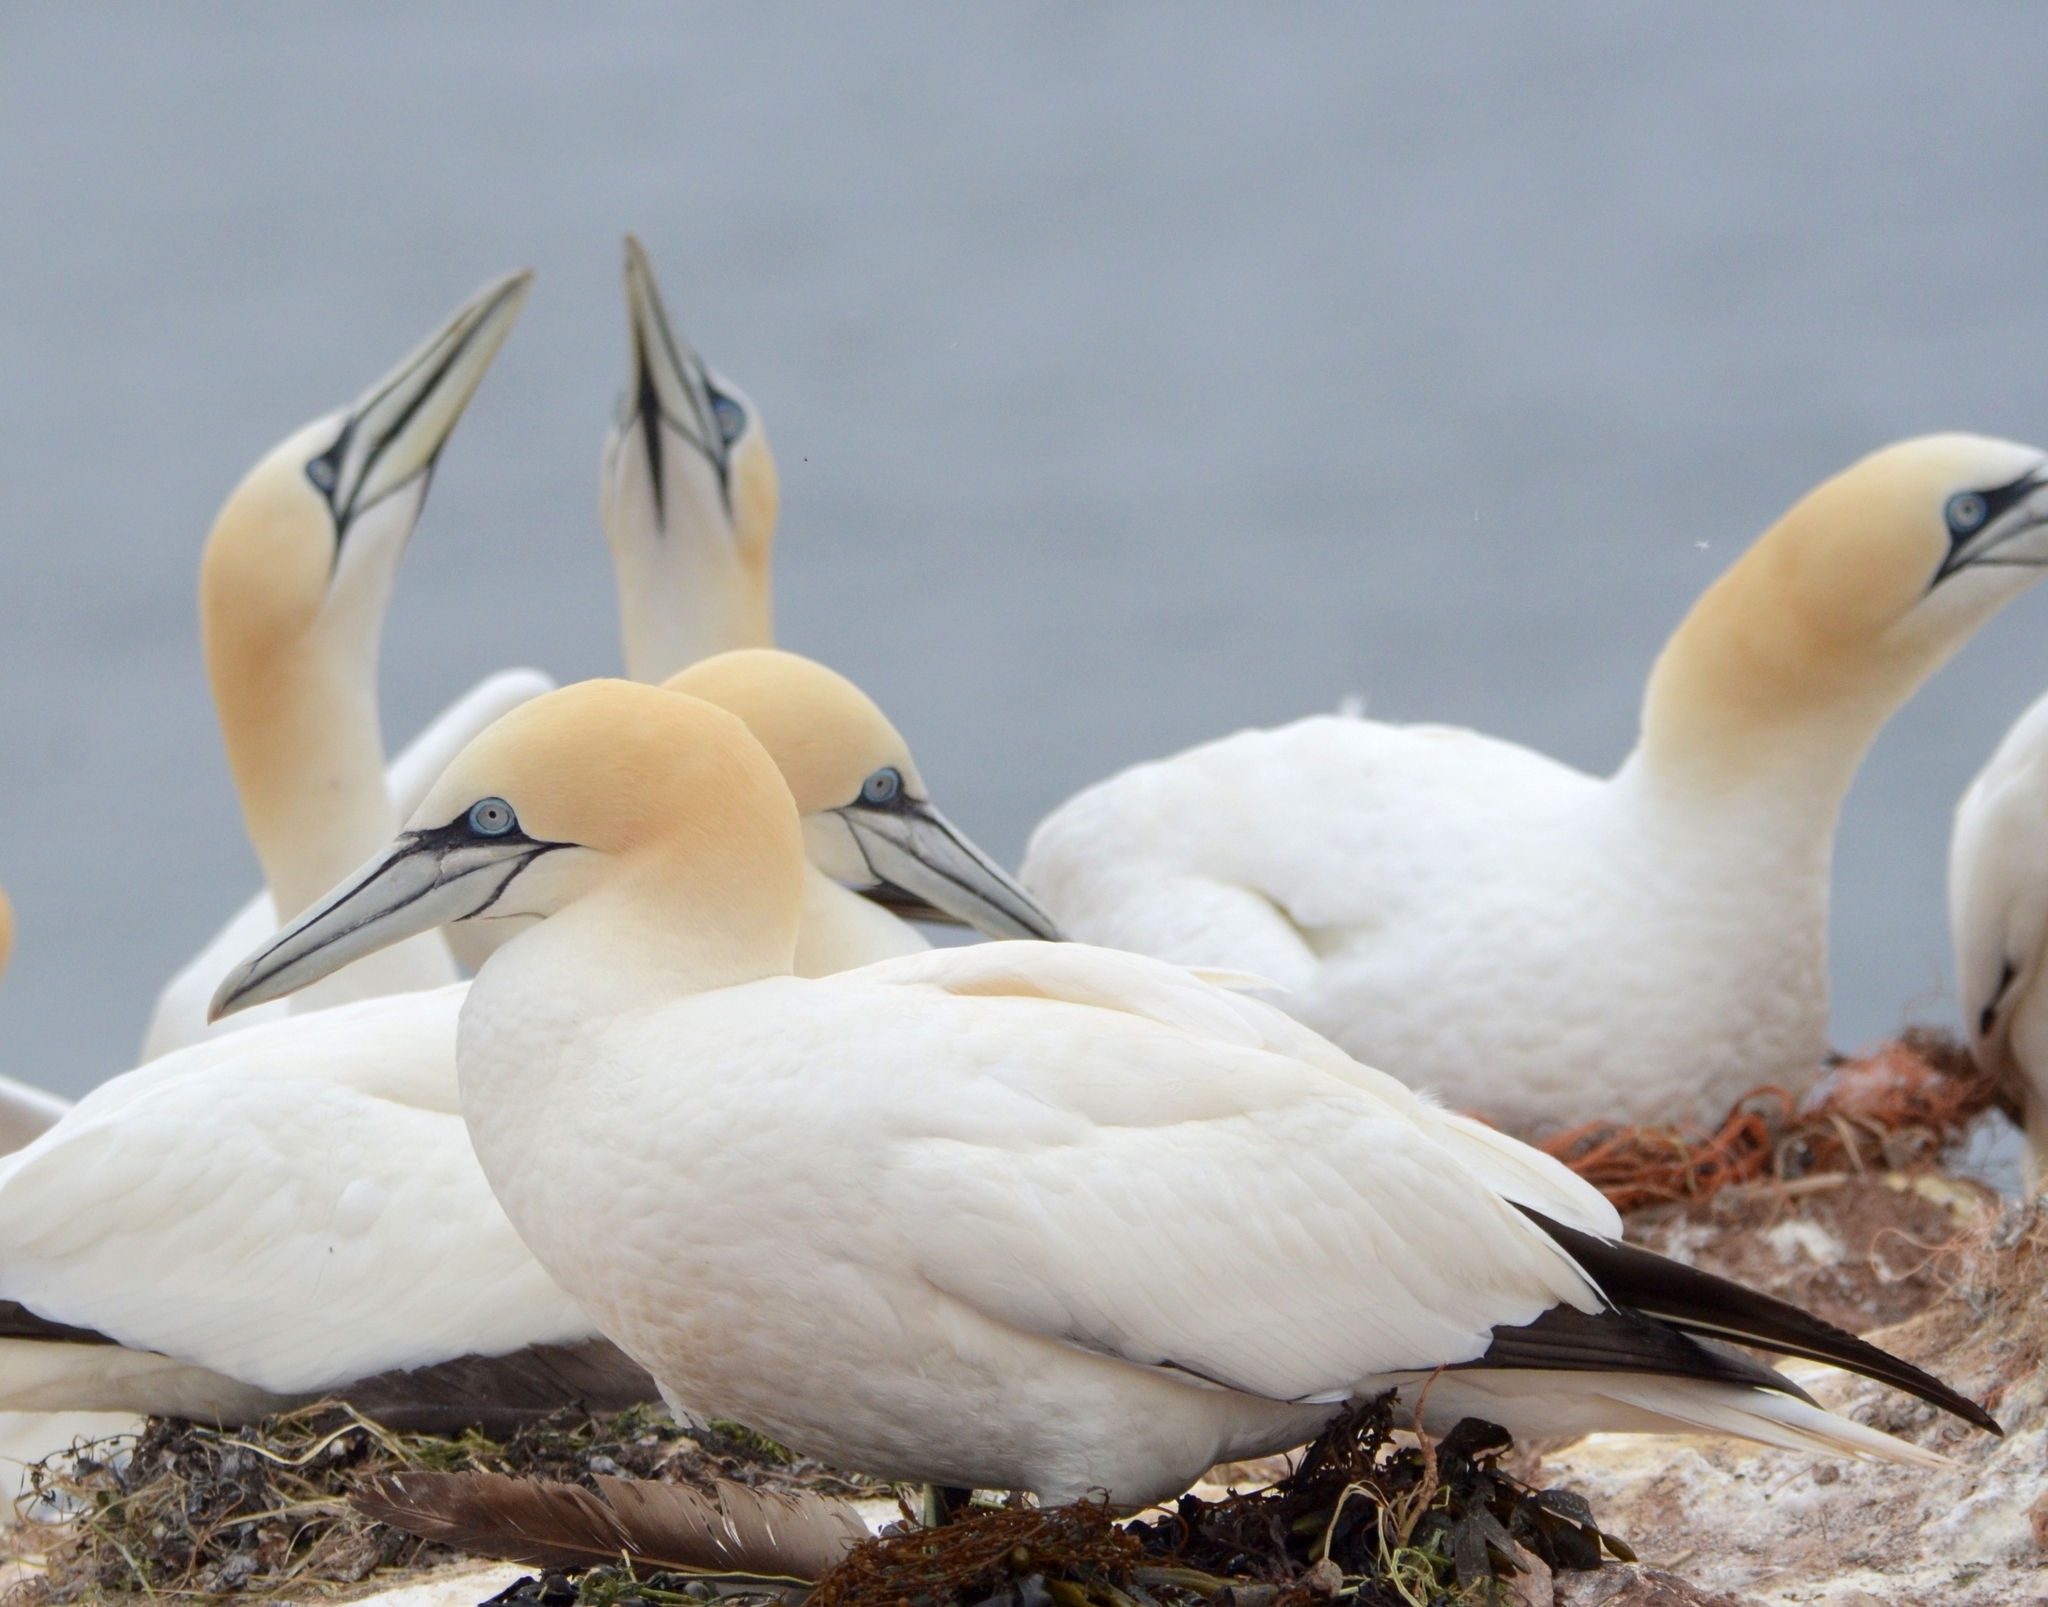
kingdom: Animalia
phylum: Chordata
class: Aves
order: Suliformes
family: Sulidae
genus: Morus
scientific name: Morus bassanus
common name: Northern gannet
